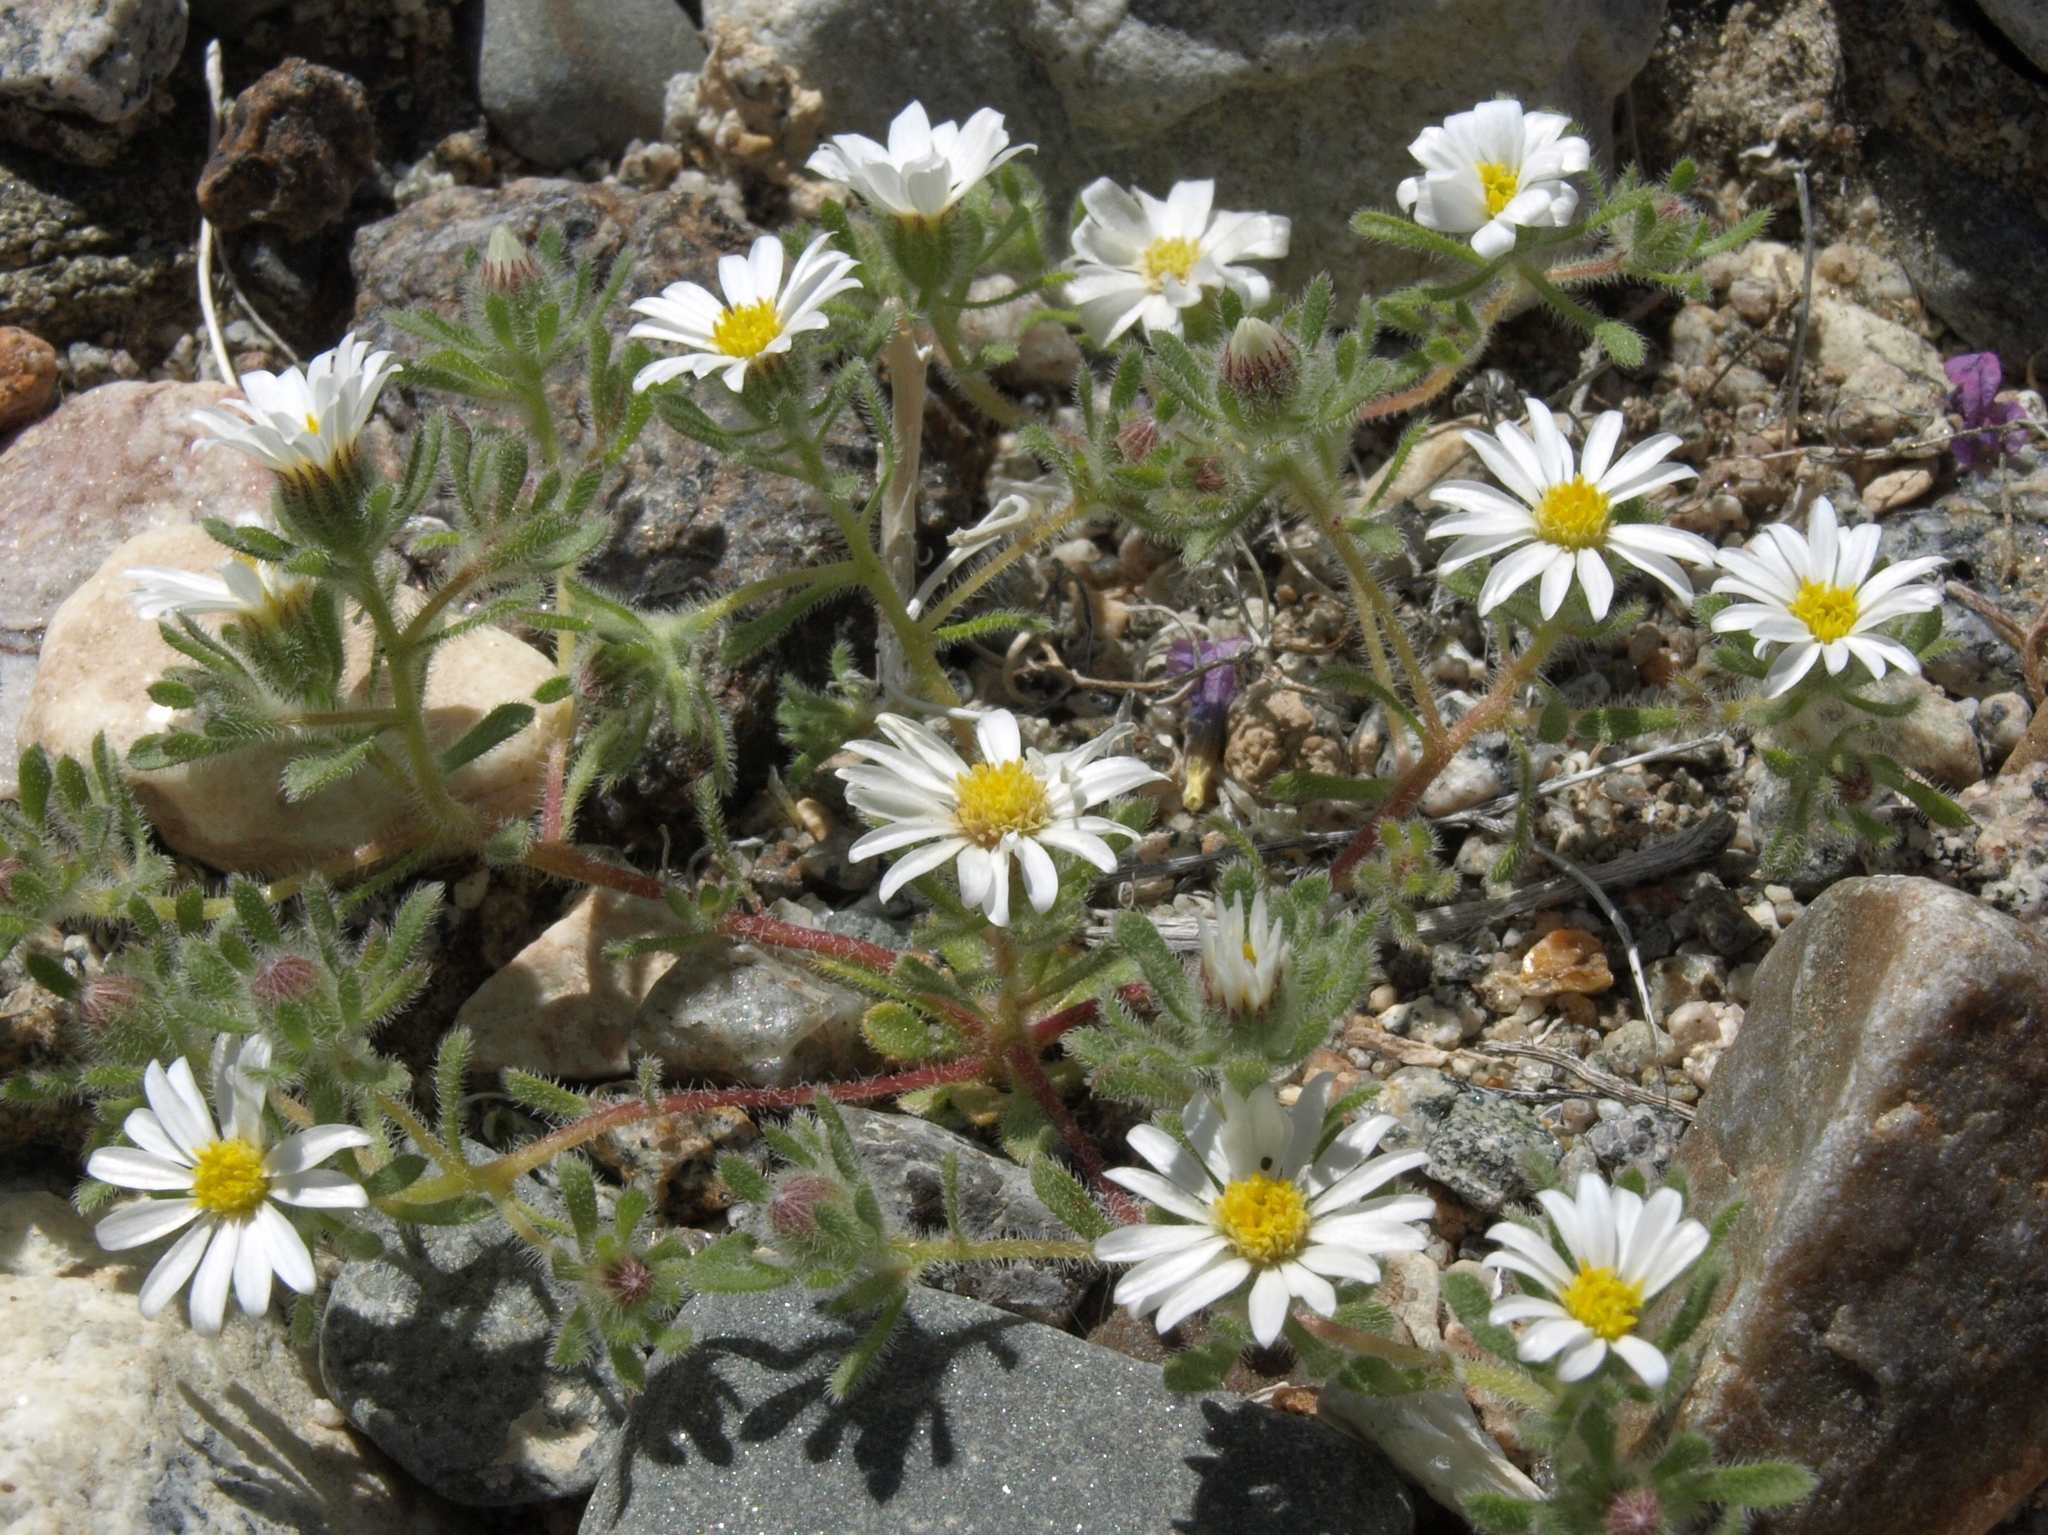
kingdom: Plantae
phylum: Tracheophyta
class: Magnoliopsida
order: Asterales
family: Asteraceae
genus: Monoptilon
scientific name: Monoptilon bellidiforme
